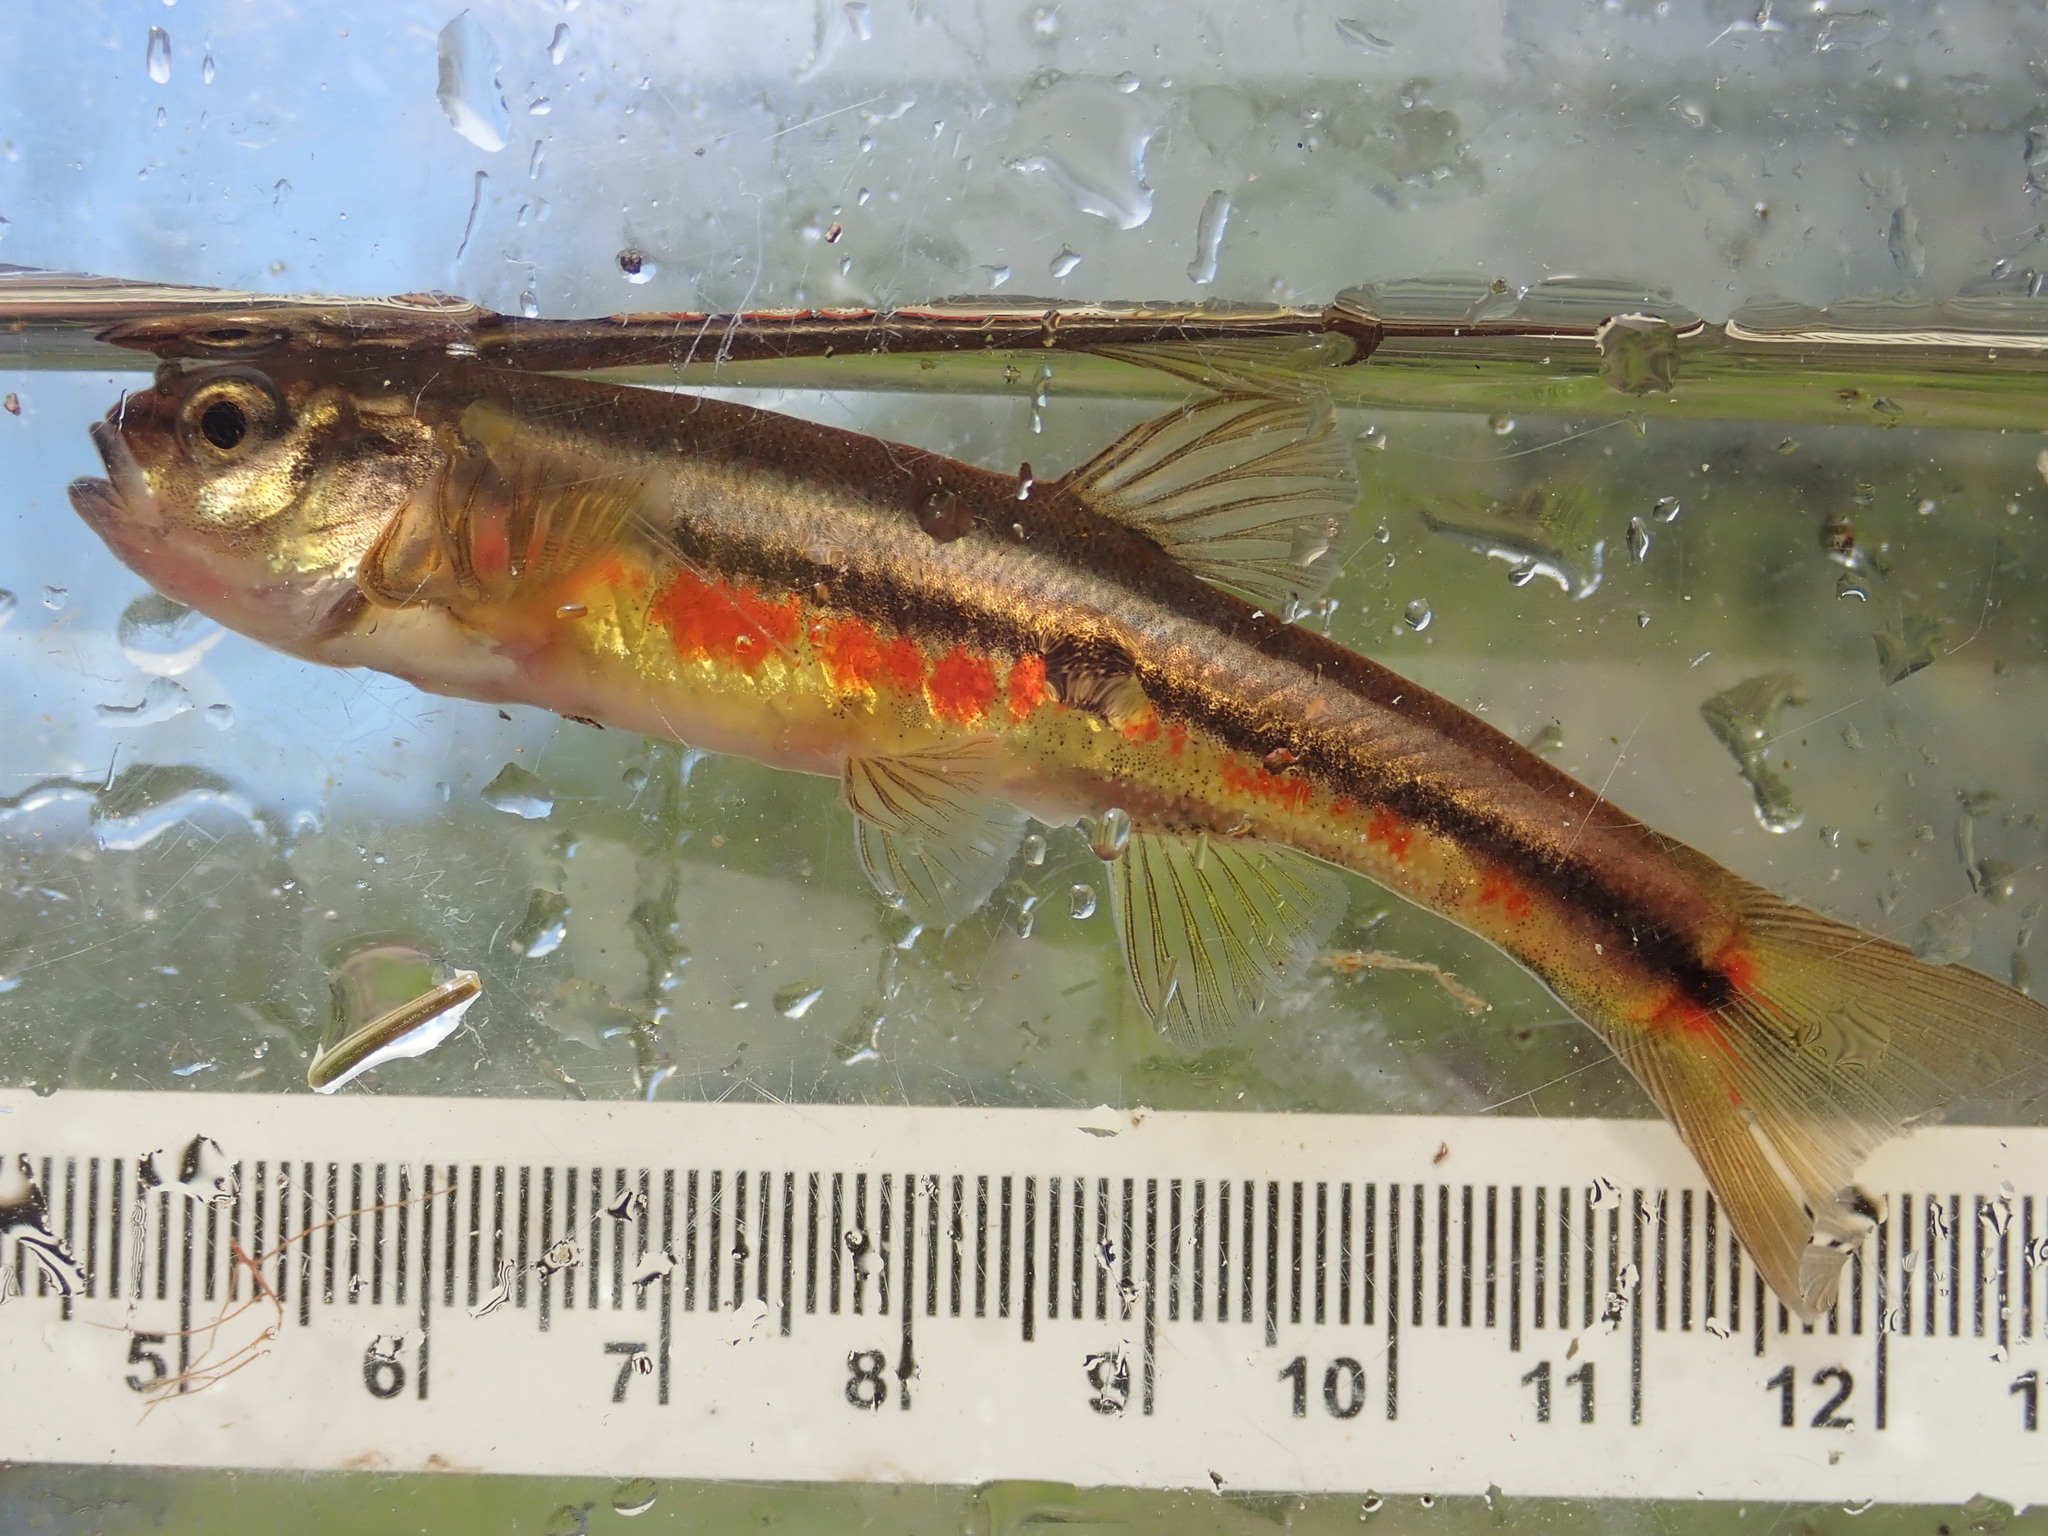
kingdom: Animalia
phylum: Chordata
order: Cypriniformes
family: Cyprinidae
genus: Chrosomus
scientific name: Chrosomus neogaeus
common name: Finescale dace
